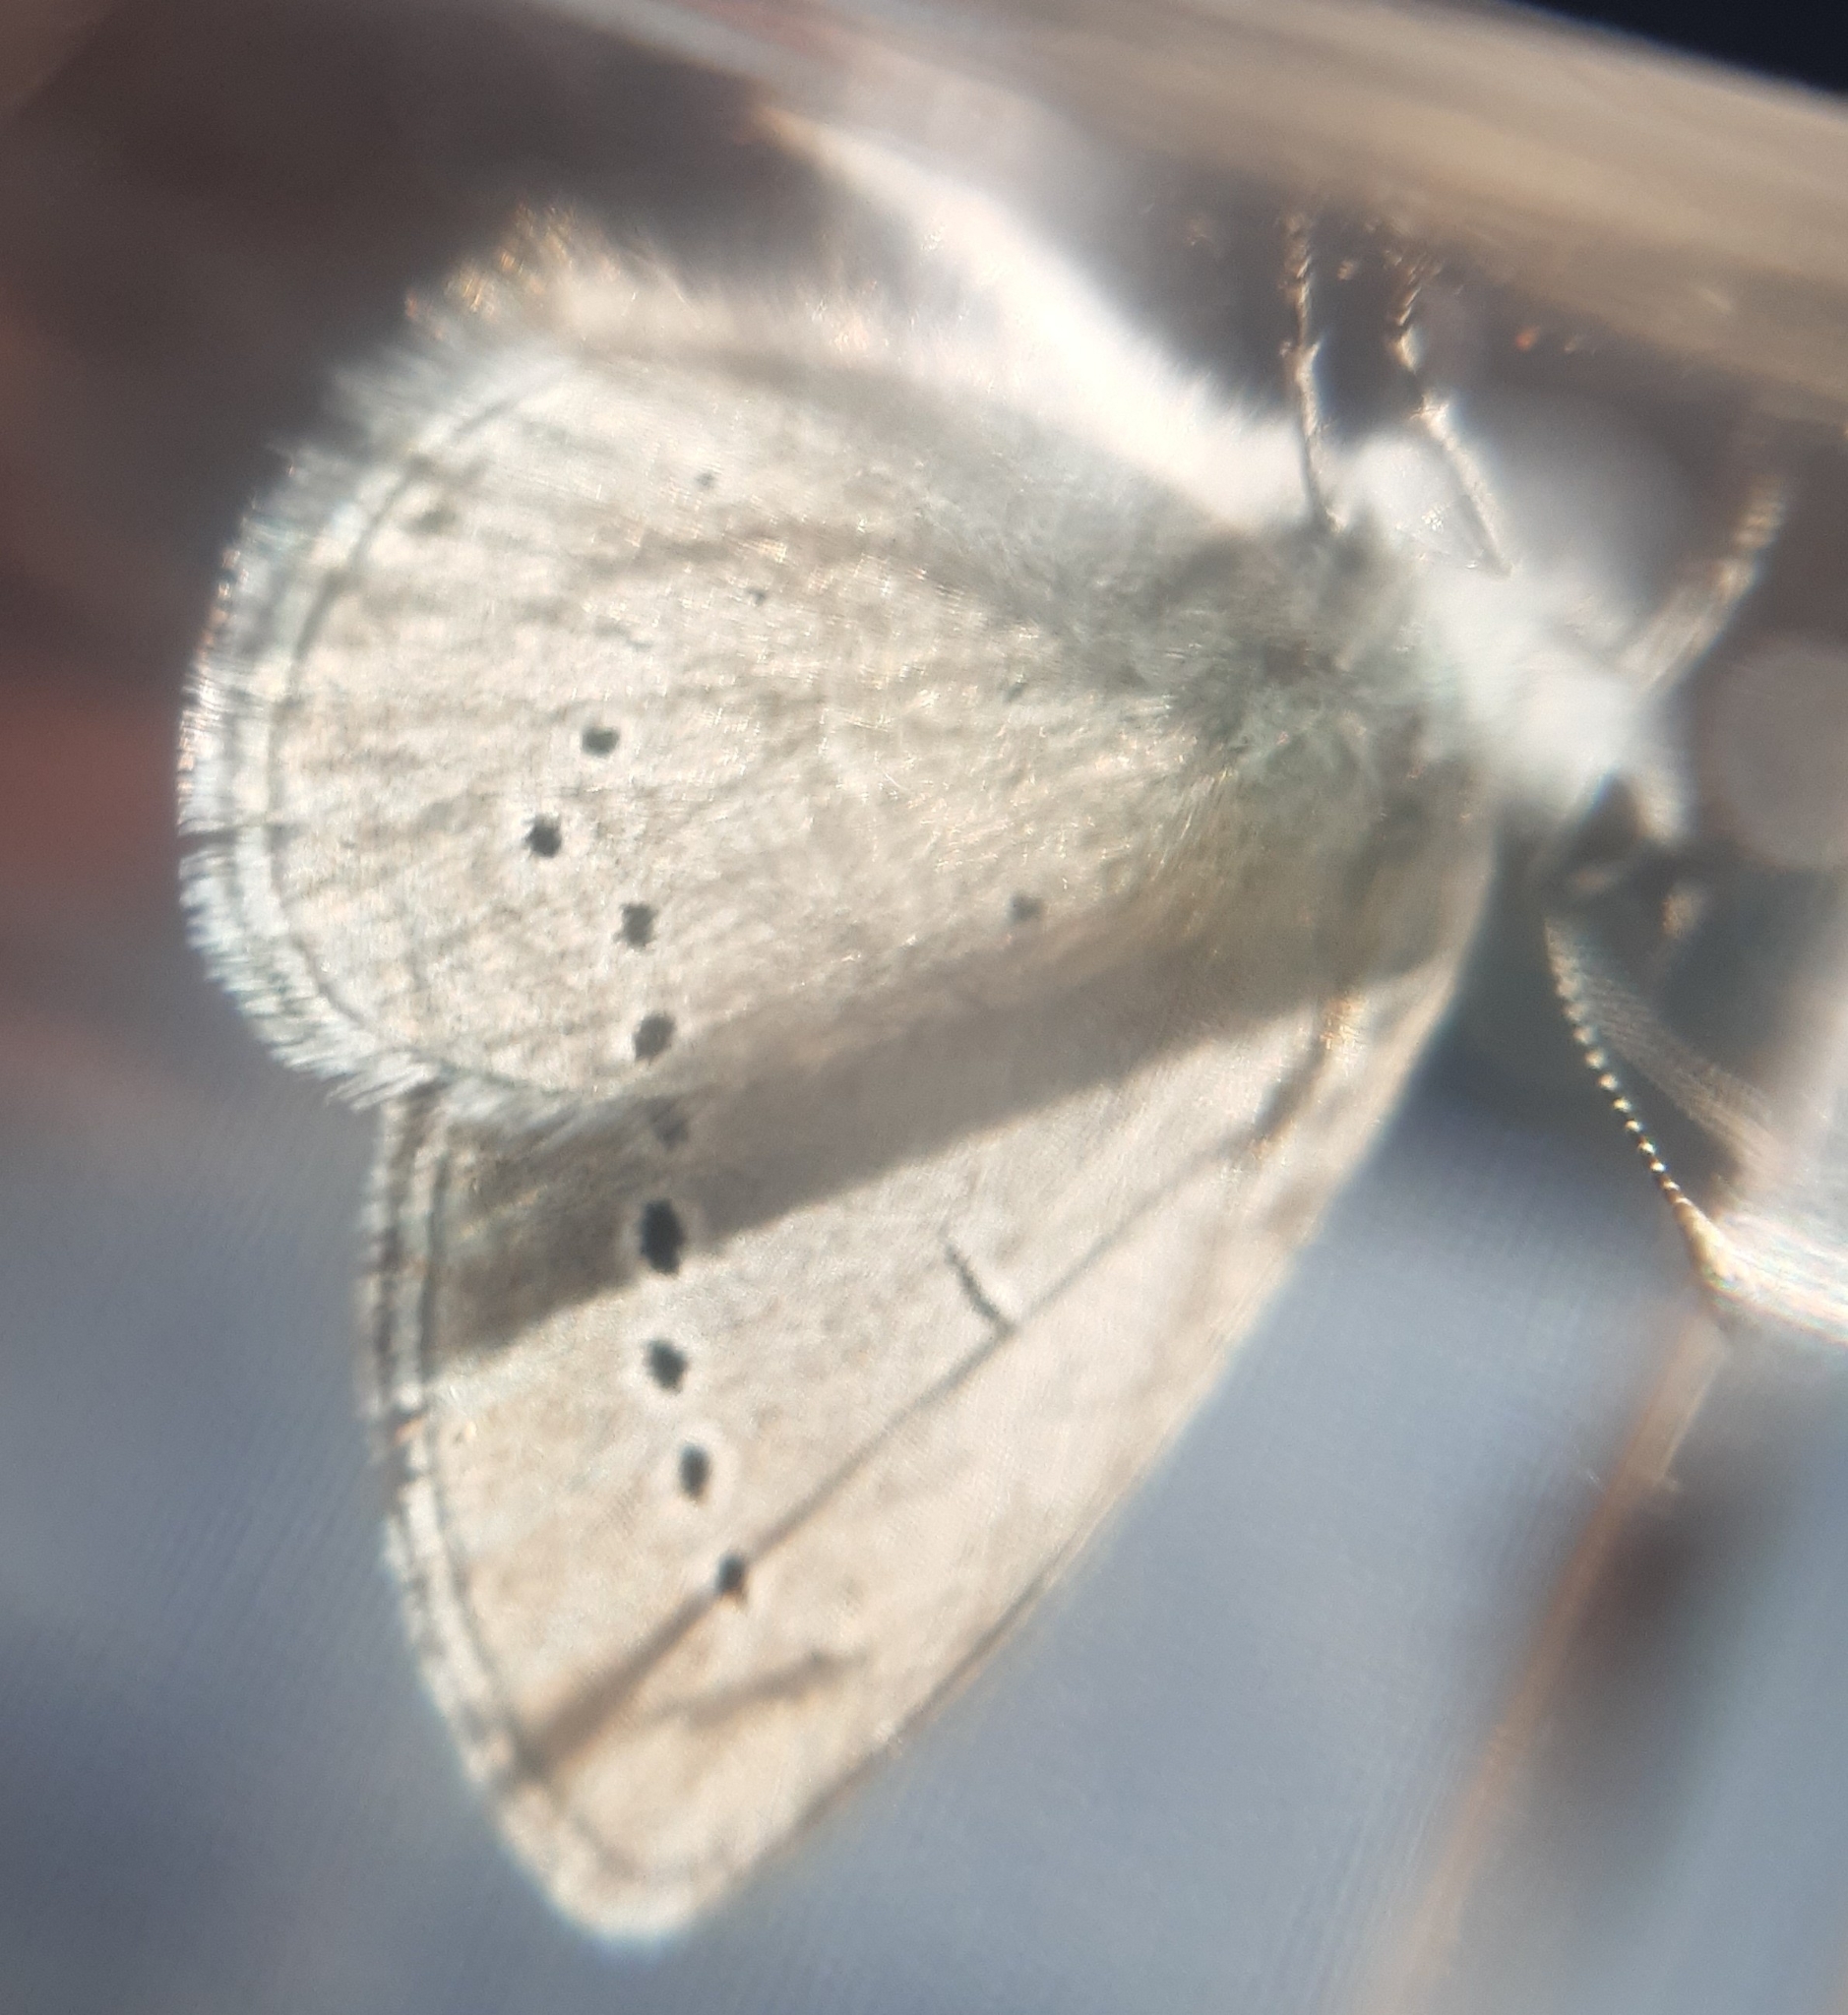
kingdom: Animalia
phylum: Arthropoda
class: Insecta
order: Lepidoptera
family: Lycaenidae
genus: Cupido
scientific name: Cupido minimus
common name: Small blue
